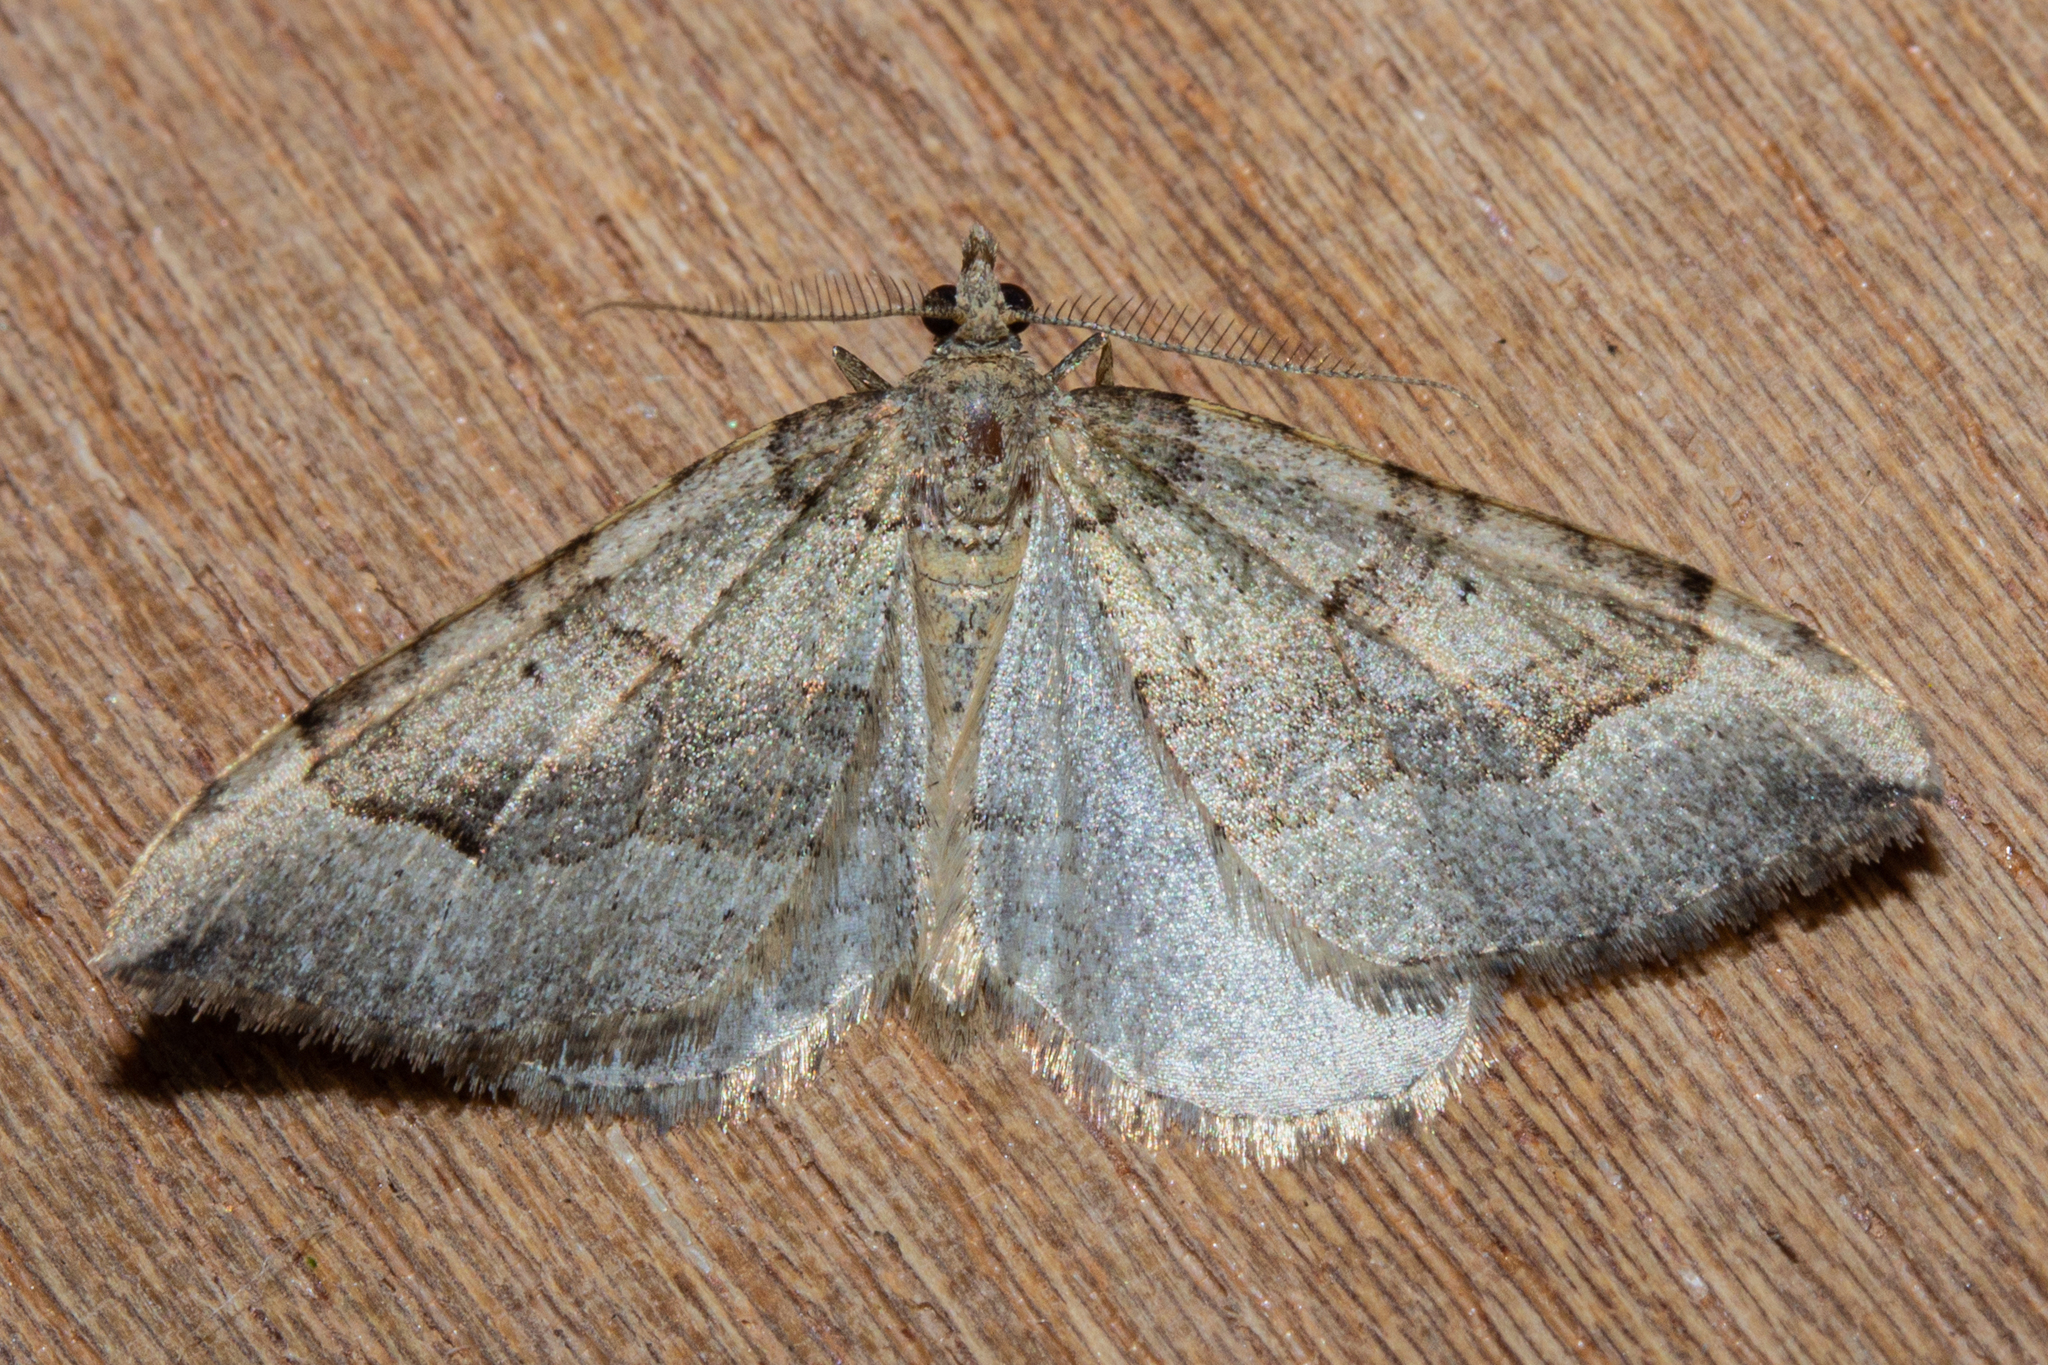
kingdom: Animalia
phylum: Arthropoda
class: Insecta
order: Lepidoptera
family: Geometridae
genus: Epyaxa
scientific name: Epyaxa rosearia
